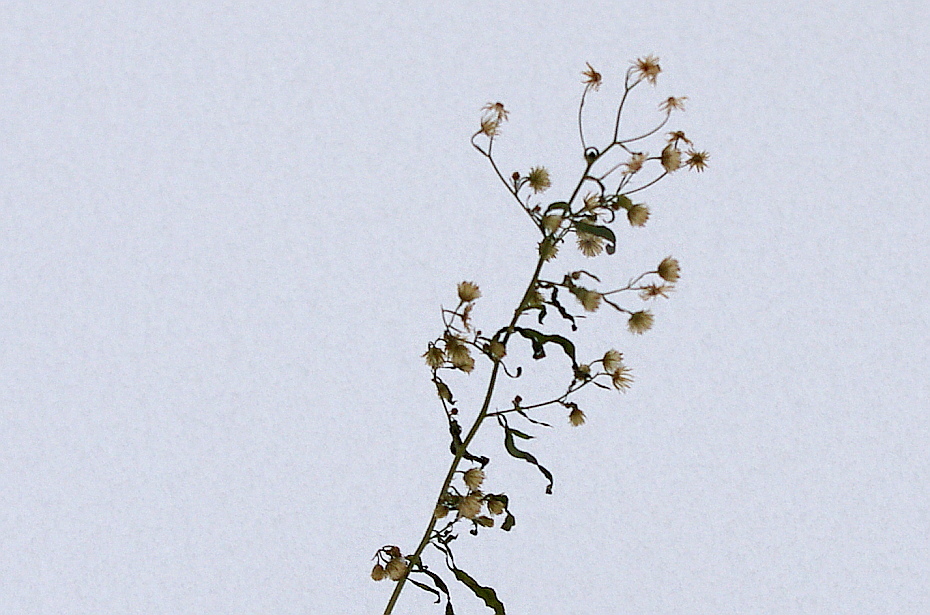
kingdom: Plantae
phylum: Tracheophyta
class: Magnoliopsida
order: Asterales
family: Asteraceae
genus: Erigeron
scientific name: Erigeron canadensis
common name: Canadian fleabane
